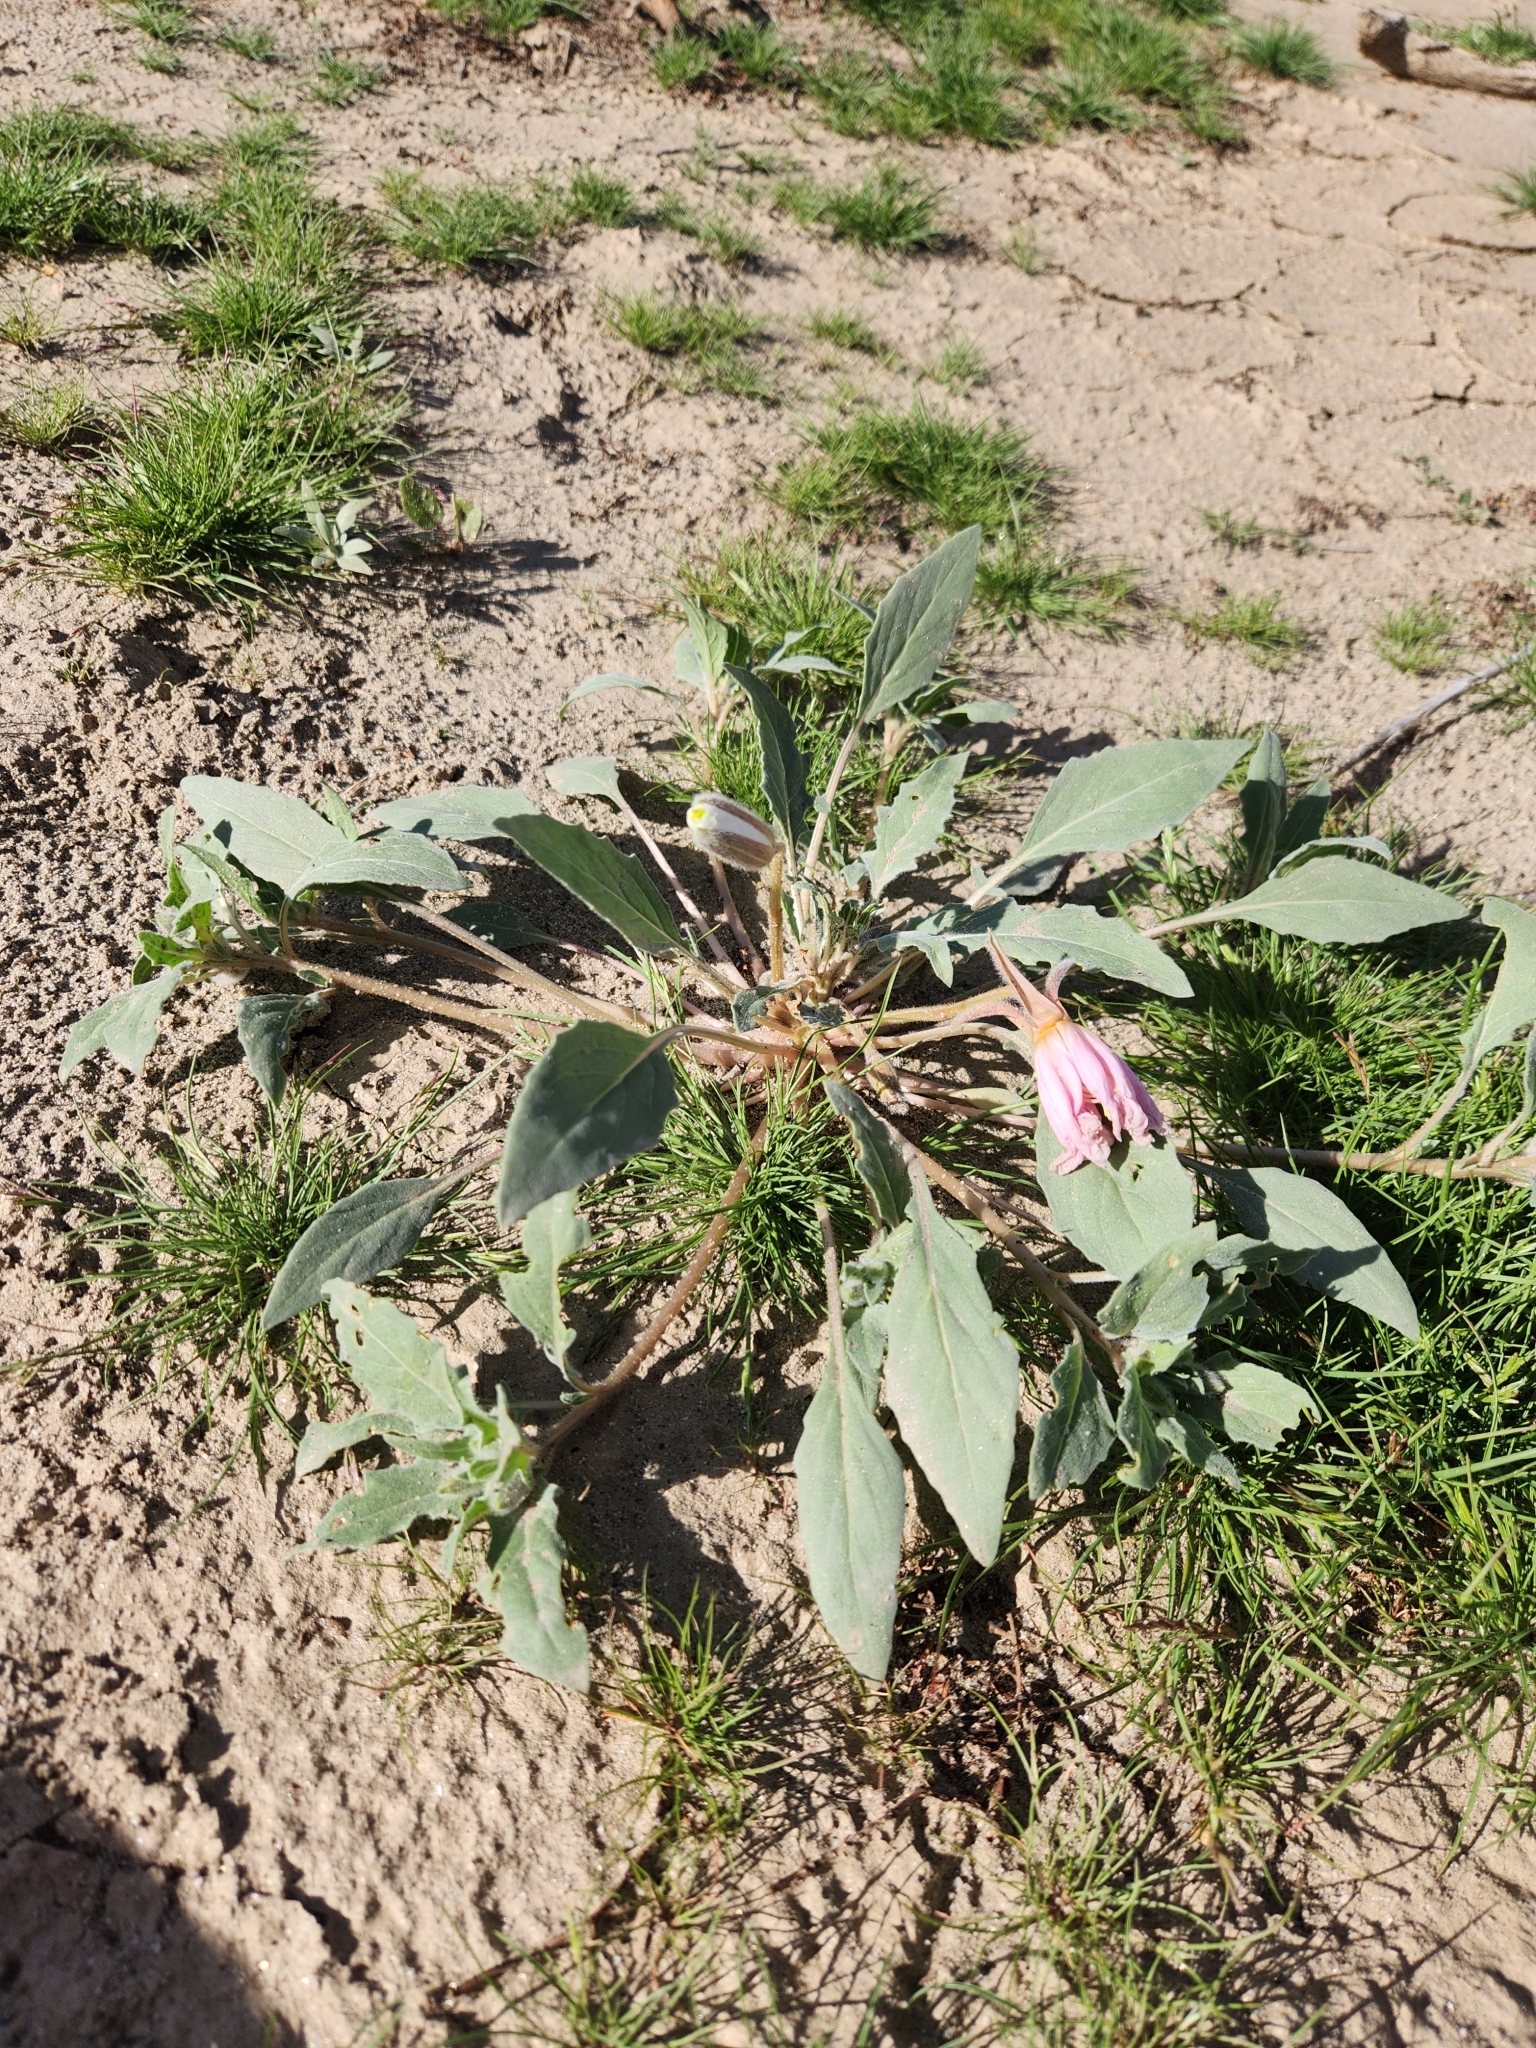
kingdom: Plantae
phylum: Tracheophyta
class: Magnoliopsida
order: Myrtales
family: Onagraceae
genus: Oenothera
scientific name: Oenothera deltoides
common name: Basket evening-primrose
